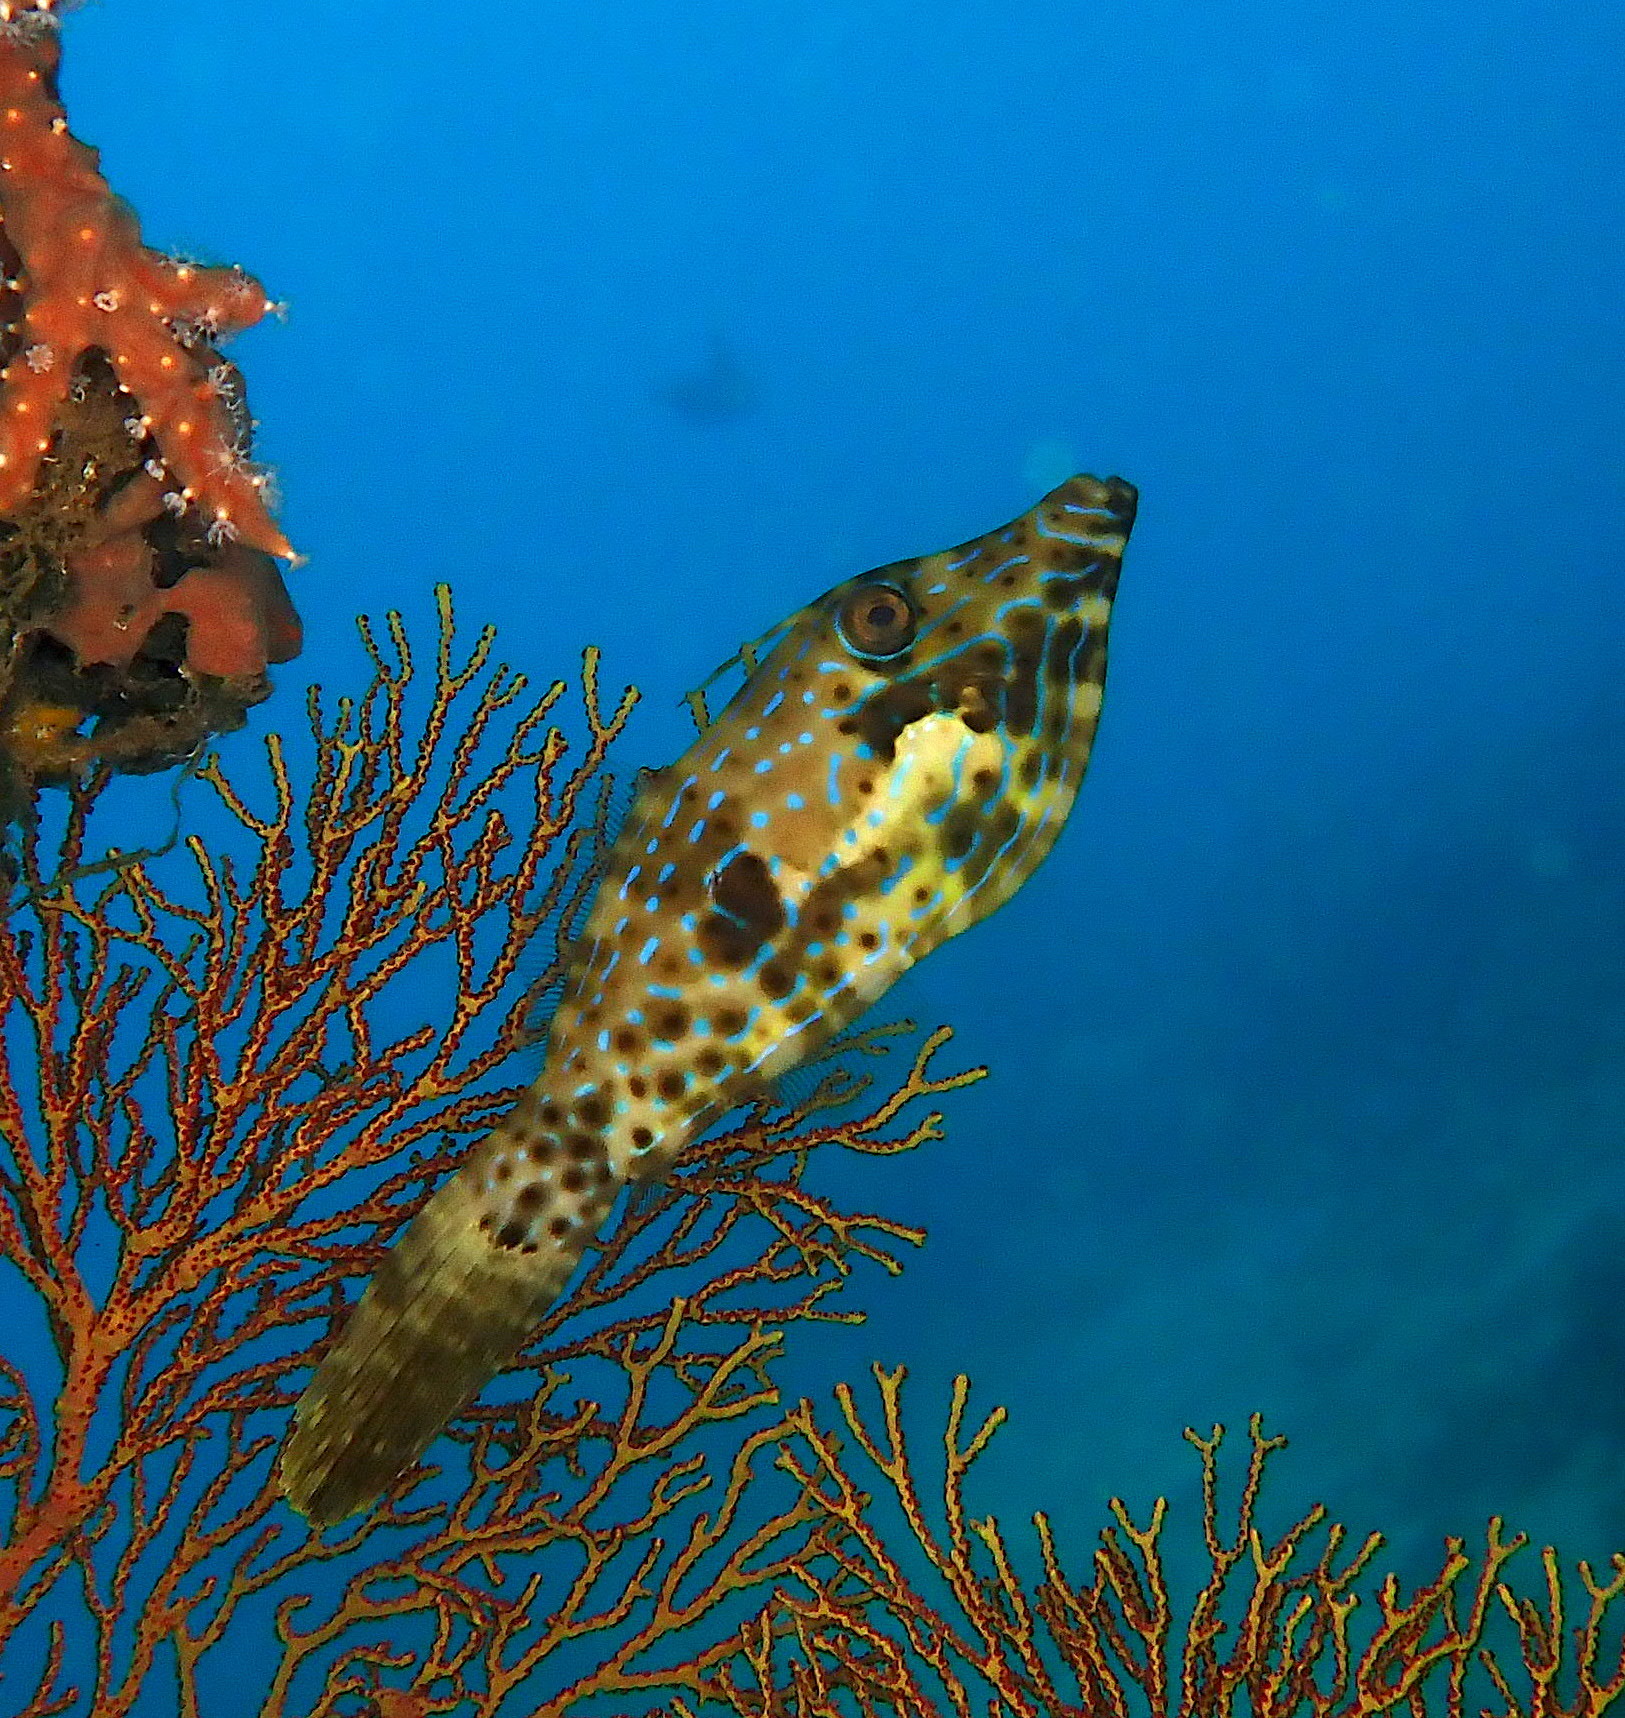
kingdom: Animalia
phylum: Chordata
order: Tetraodontiformes
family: Monacanthidae
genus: Aluterus
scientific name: Aluterus scriptus
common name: Scribbled leatherjacket filefish
